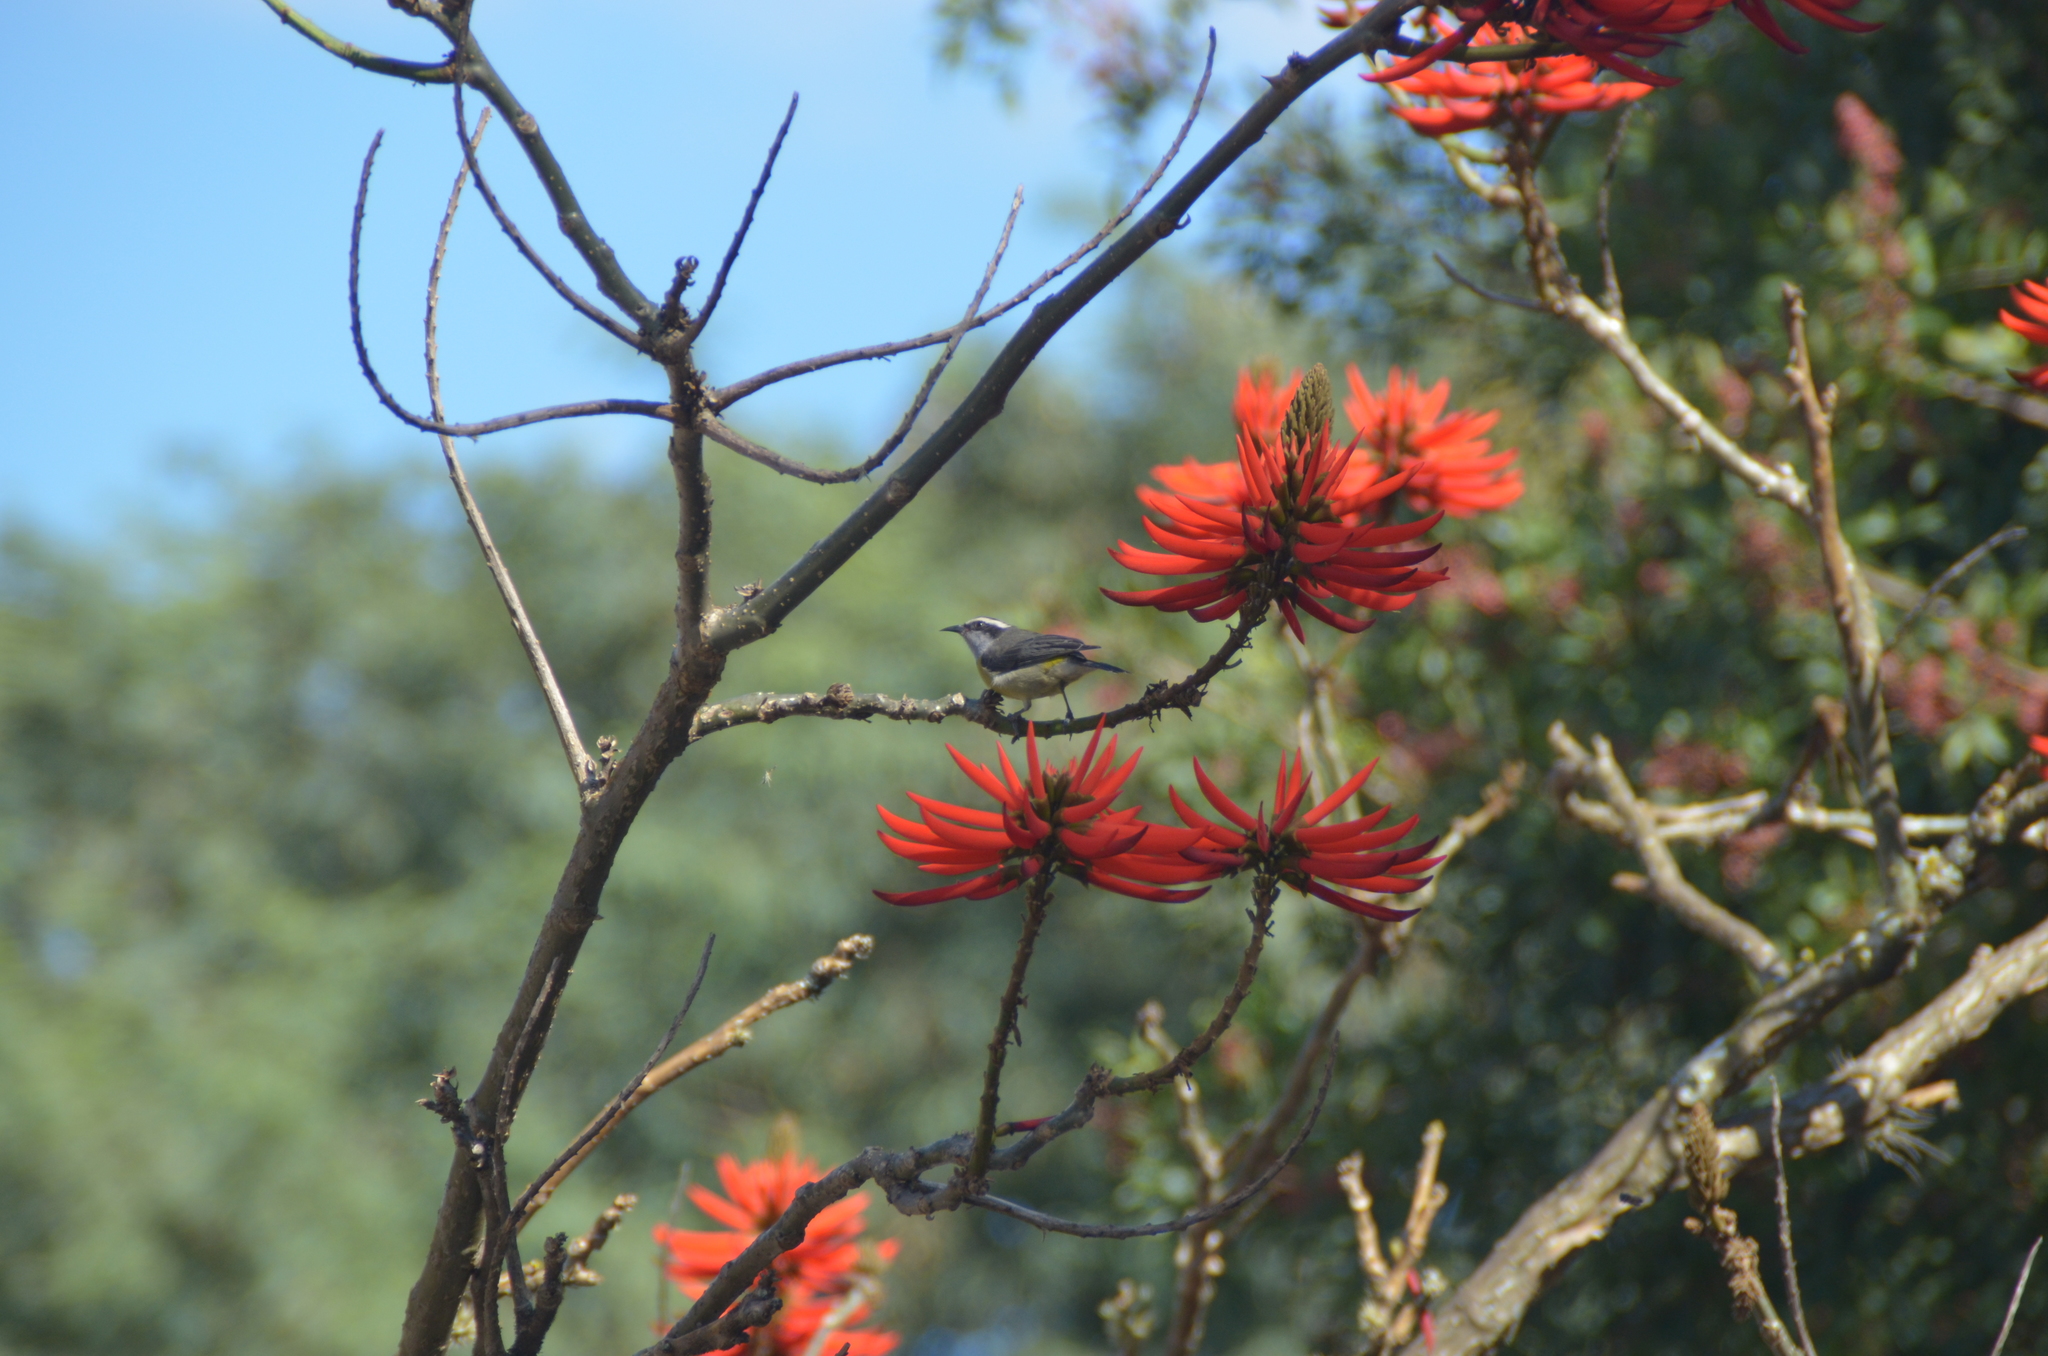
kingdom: Animalia
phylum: Chordata
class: Aves
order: Passeriformes
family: Thraupidae
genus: Coereba
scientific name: Coereba flaveola
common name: Bananaquit
